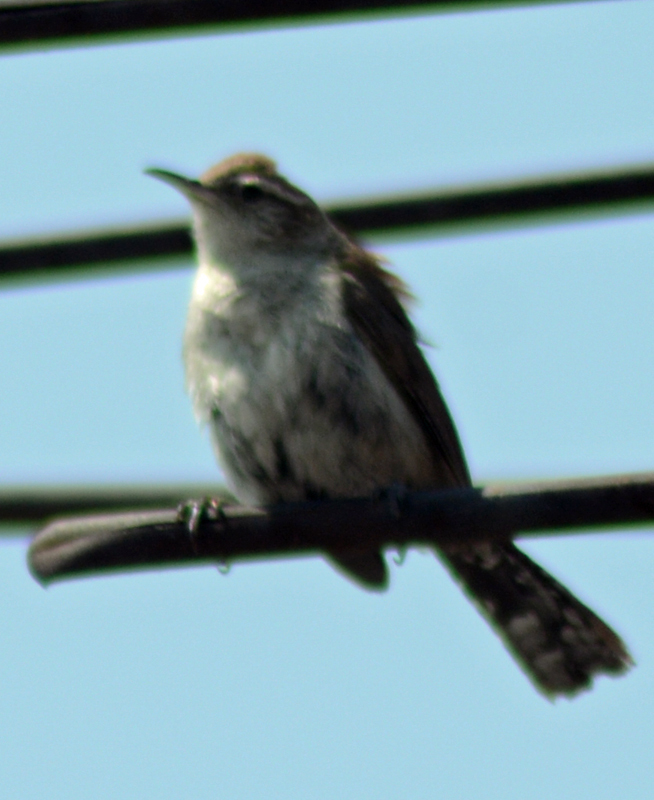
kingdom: Animalia
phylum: Chordata
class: Aves
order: Passeriformes
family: Troglodytidae
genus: Thryomanes
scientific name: Thryomanes bewickii
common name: Bewick's wren
